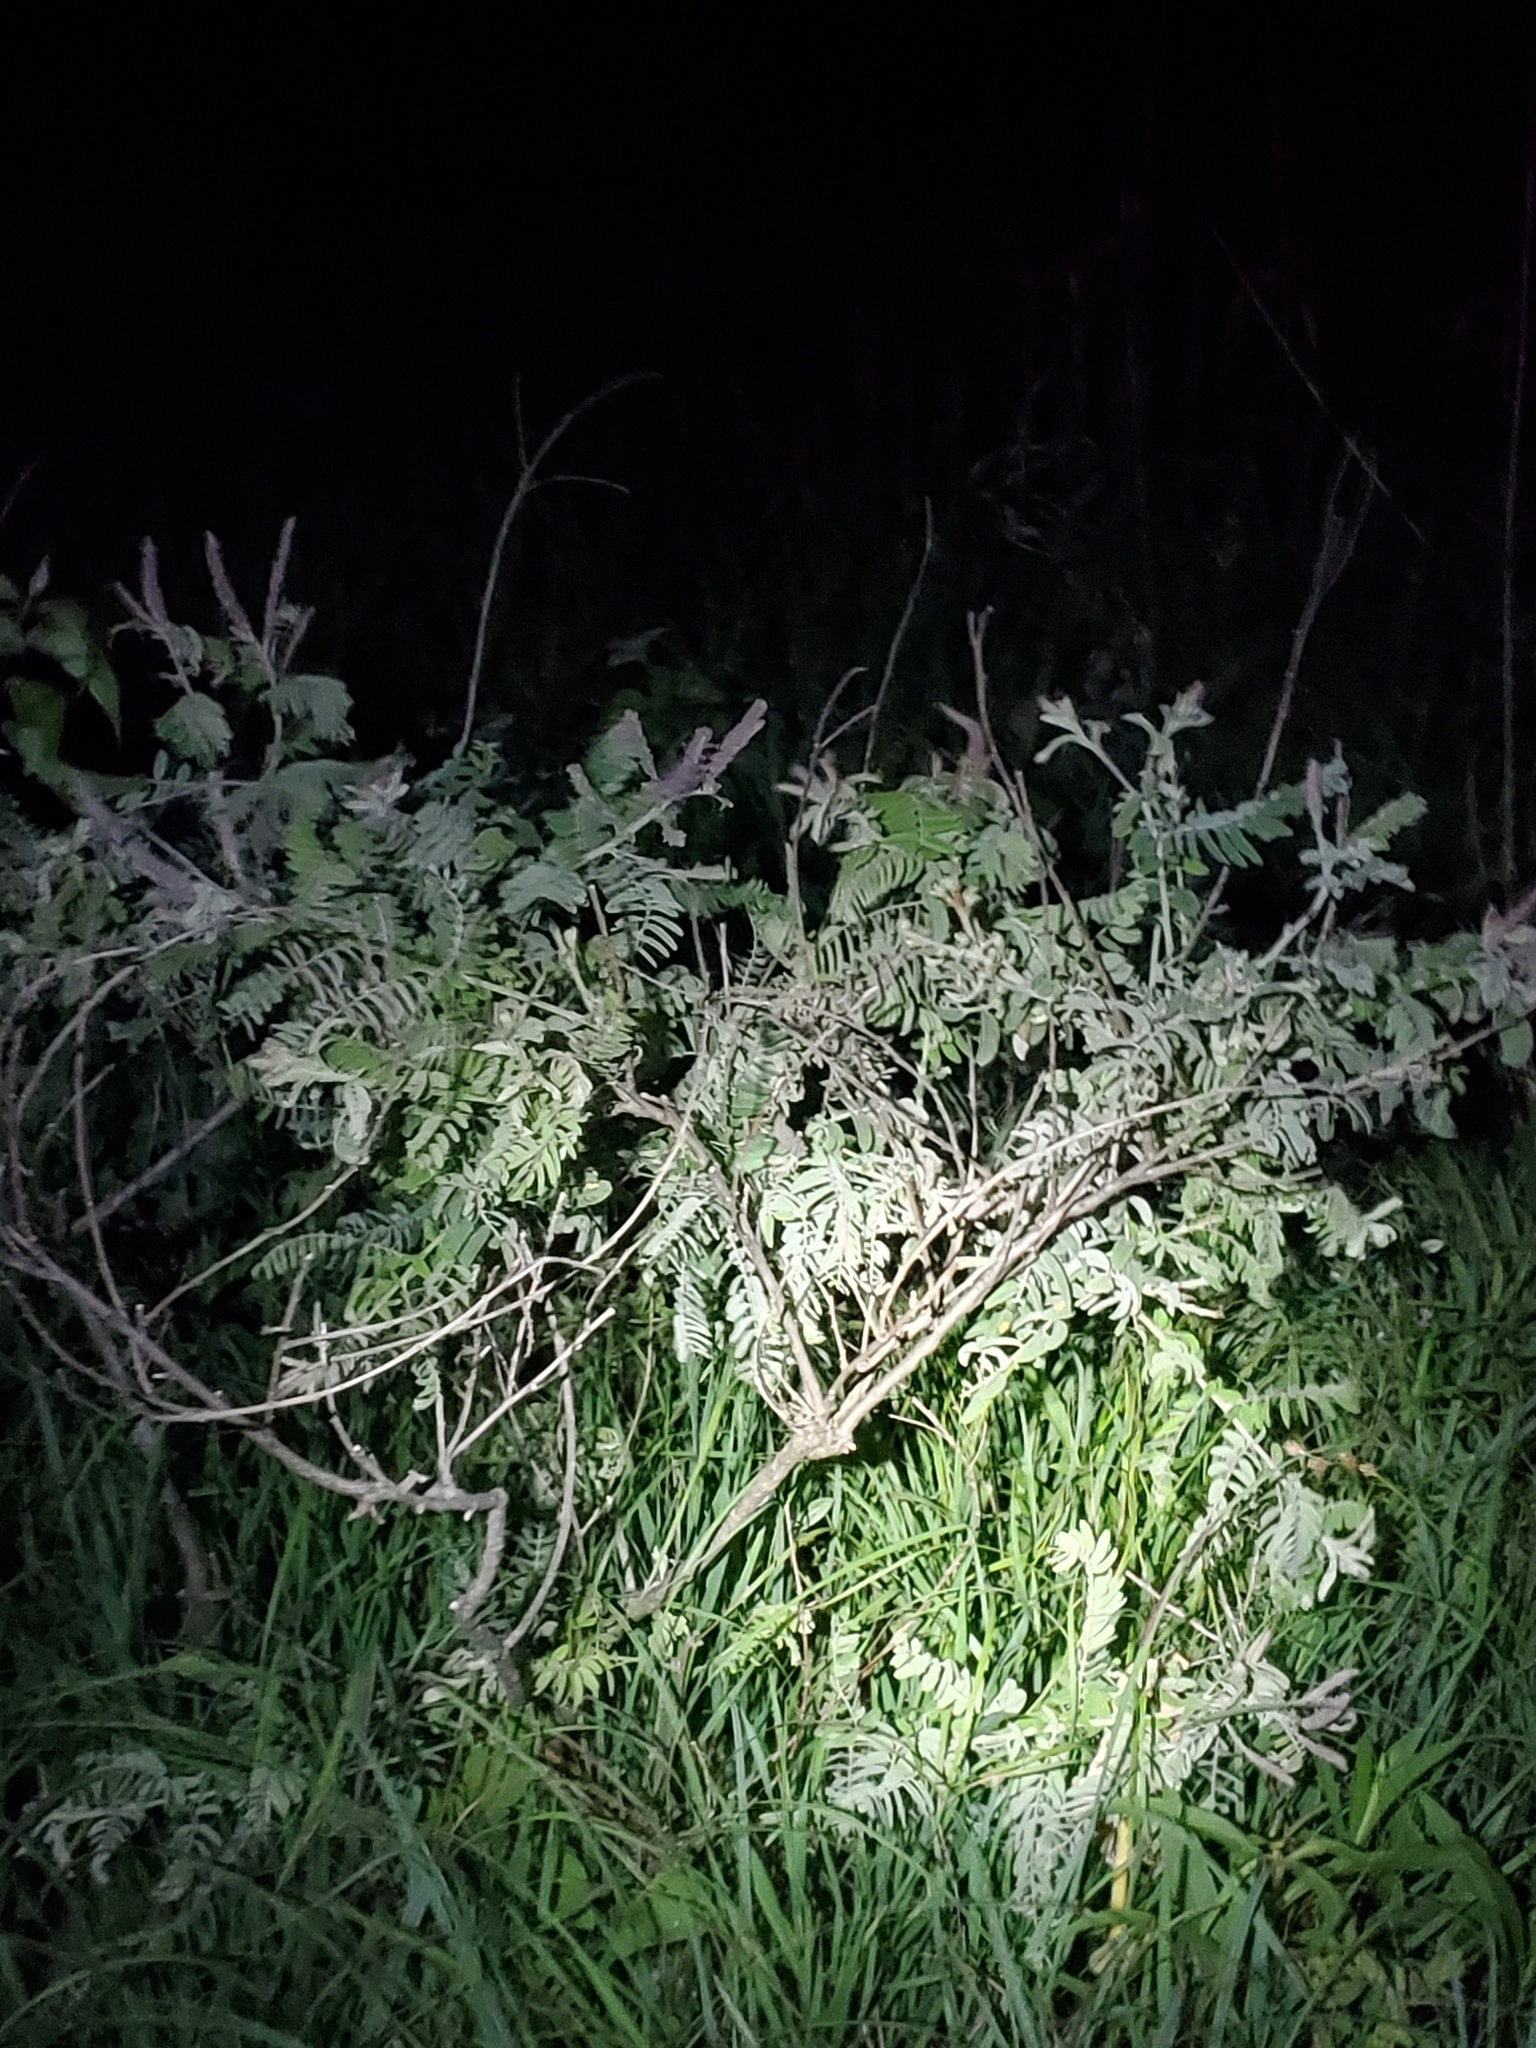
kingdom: Plantae
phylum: Tracheophyta
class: Magnoliopsida
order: Fabales
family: Fabaceae
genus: Amorpha
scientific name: Amorpha canescens
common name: Leadplant
